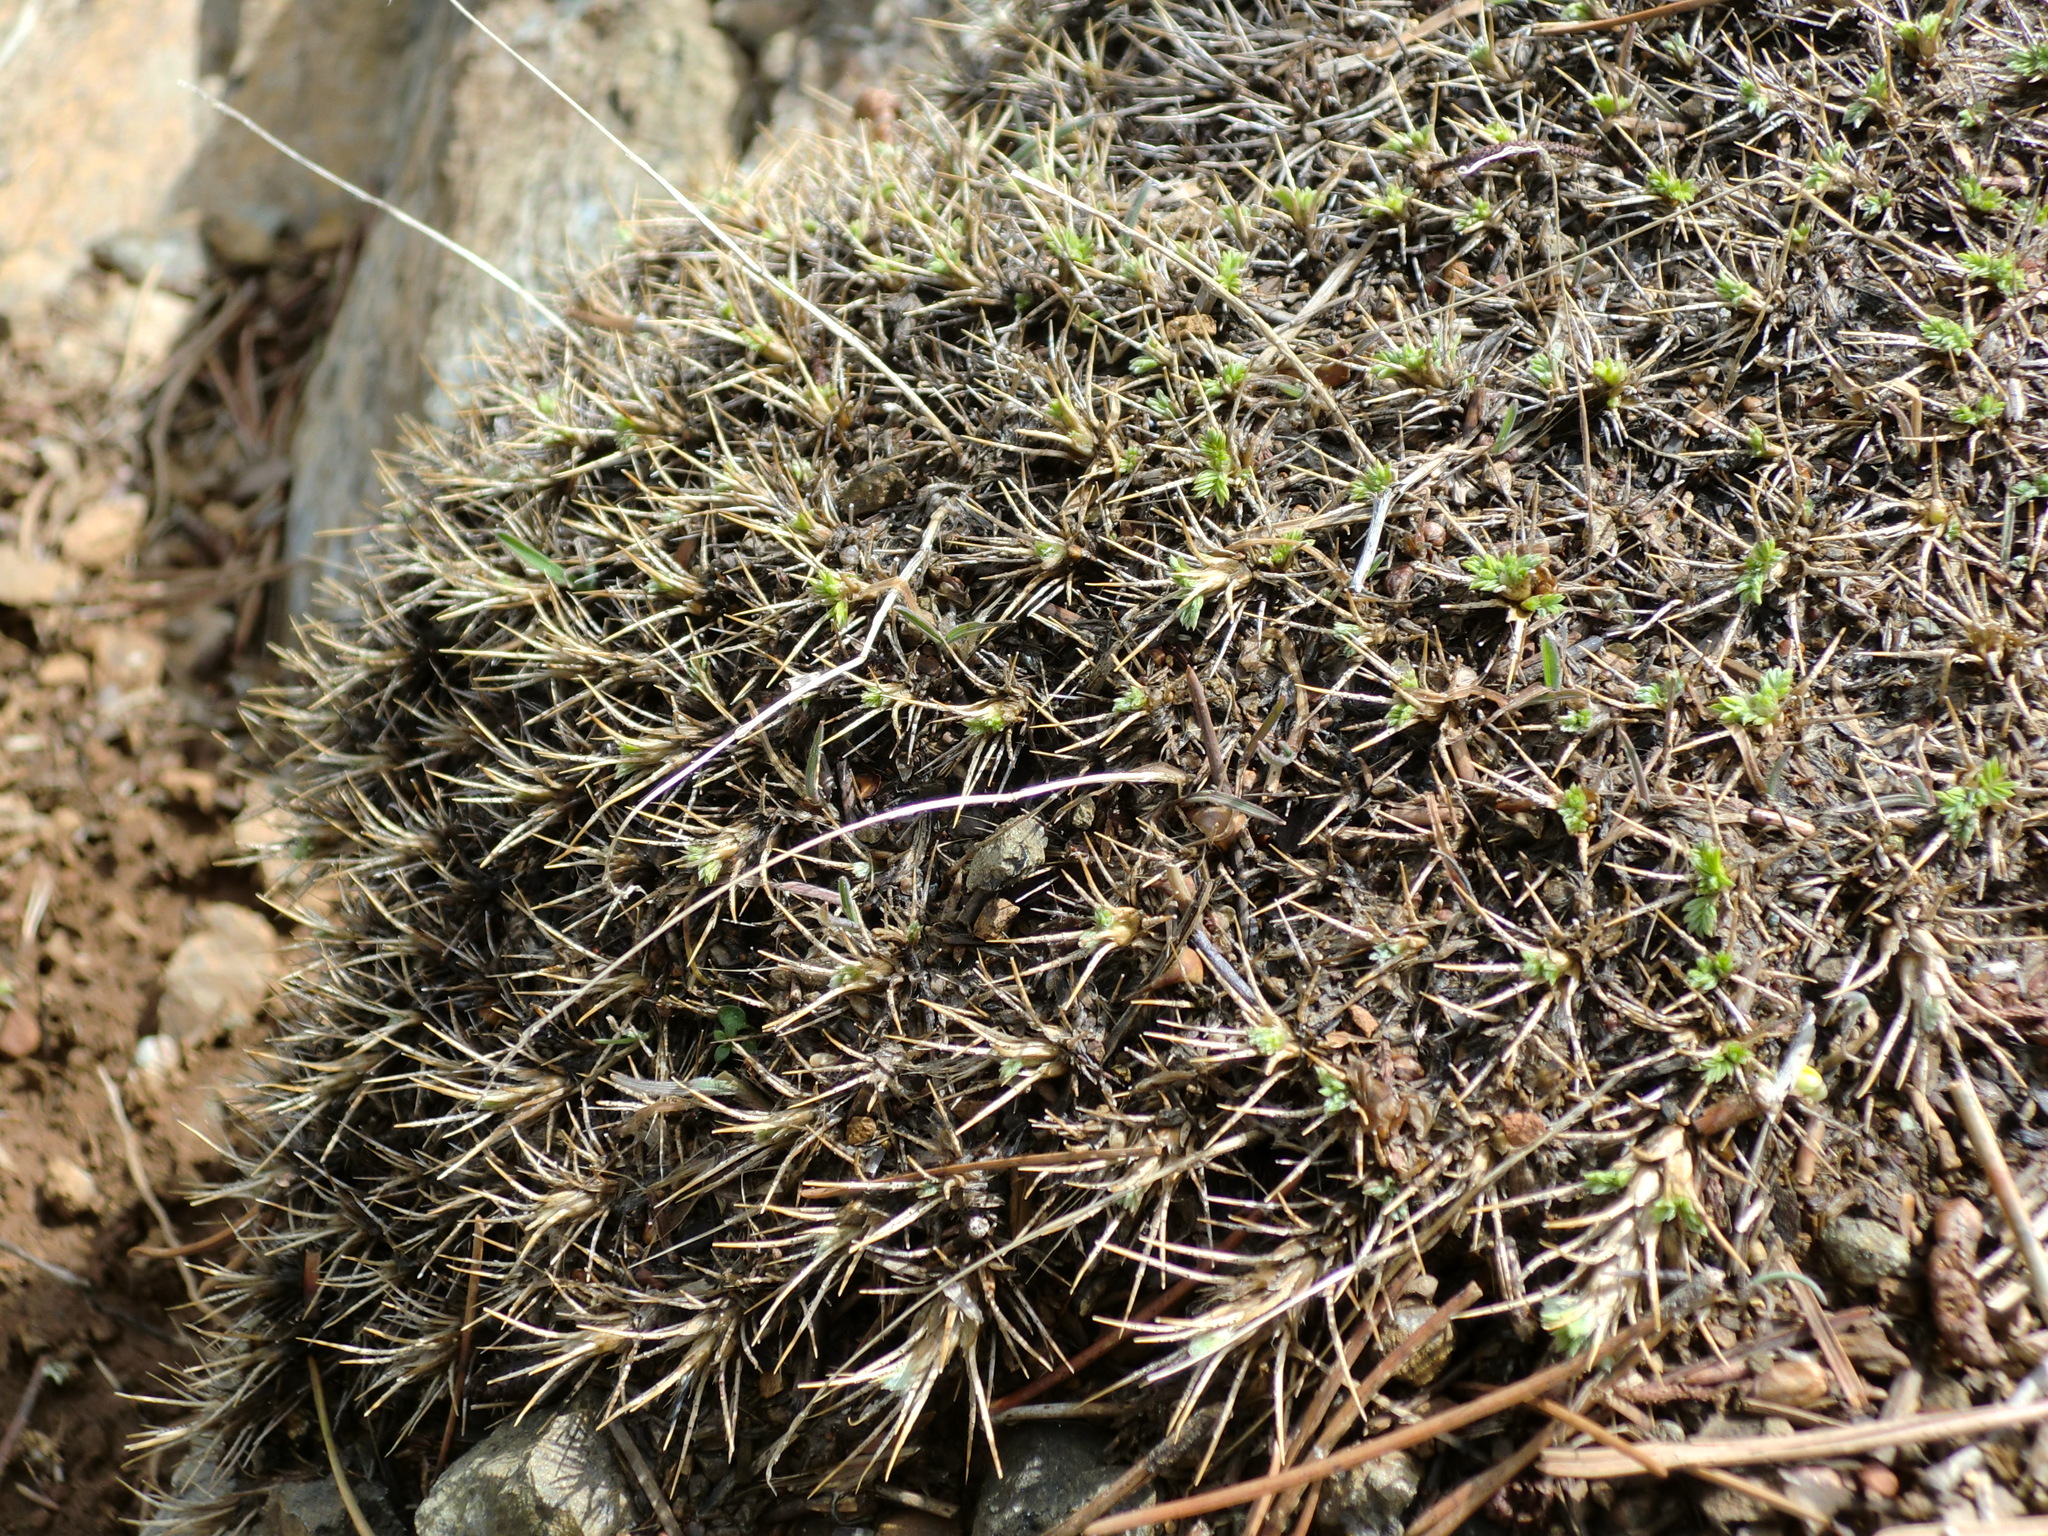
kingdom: Plantae
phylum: Tracheophyta
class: Magnoliopsida
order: Fabales
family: Fabaceae
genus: Astragalus
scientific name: Astragalus echinus
